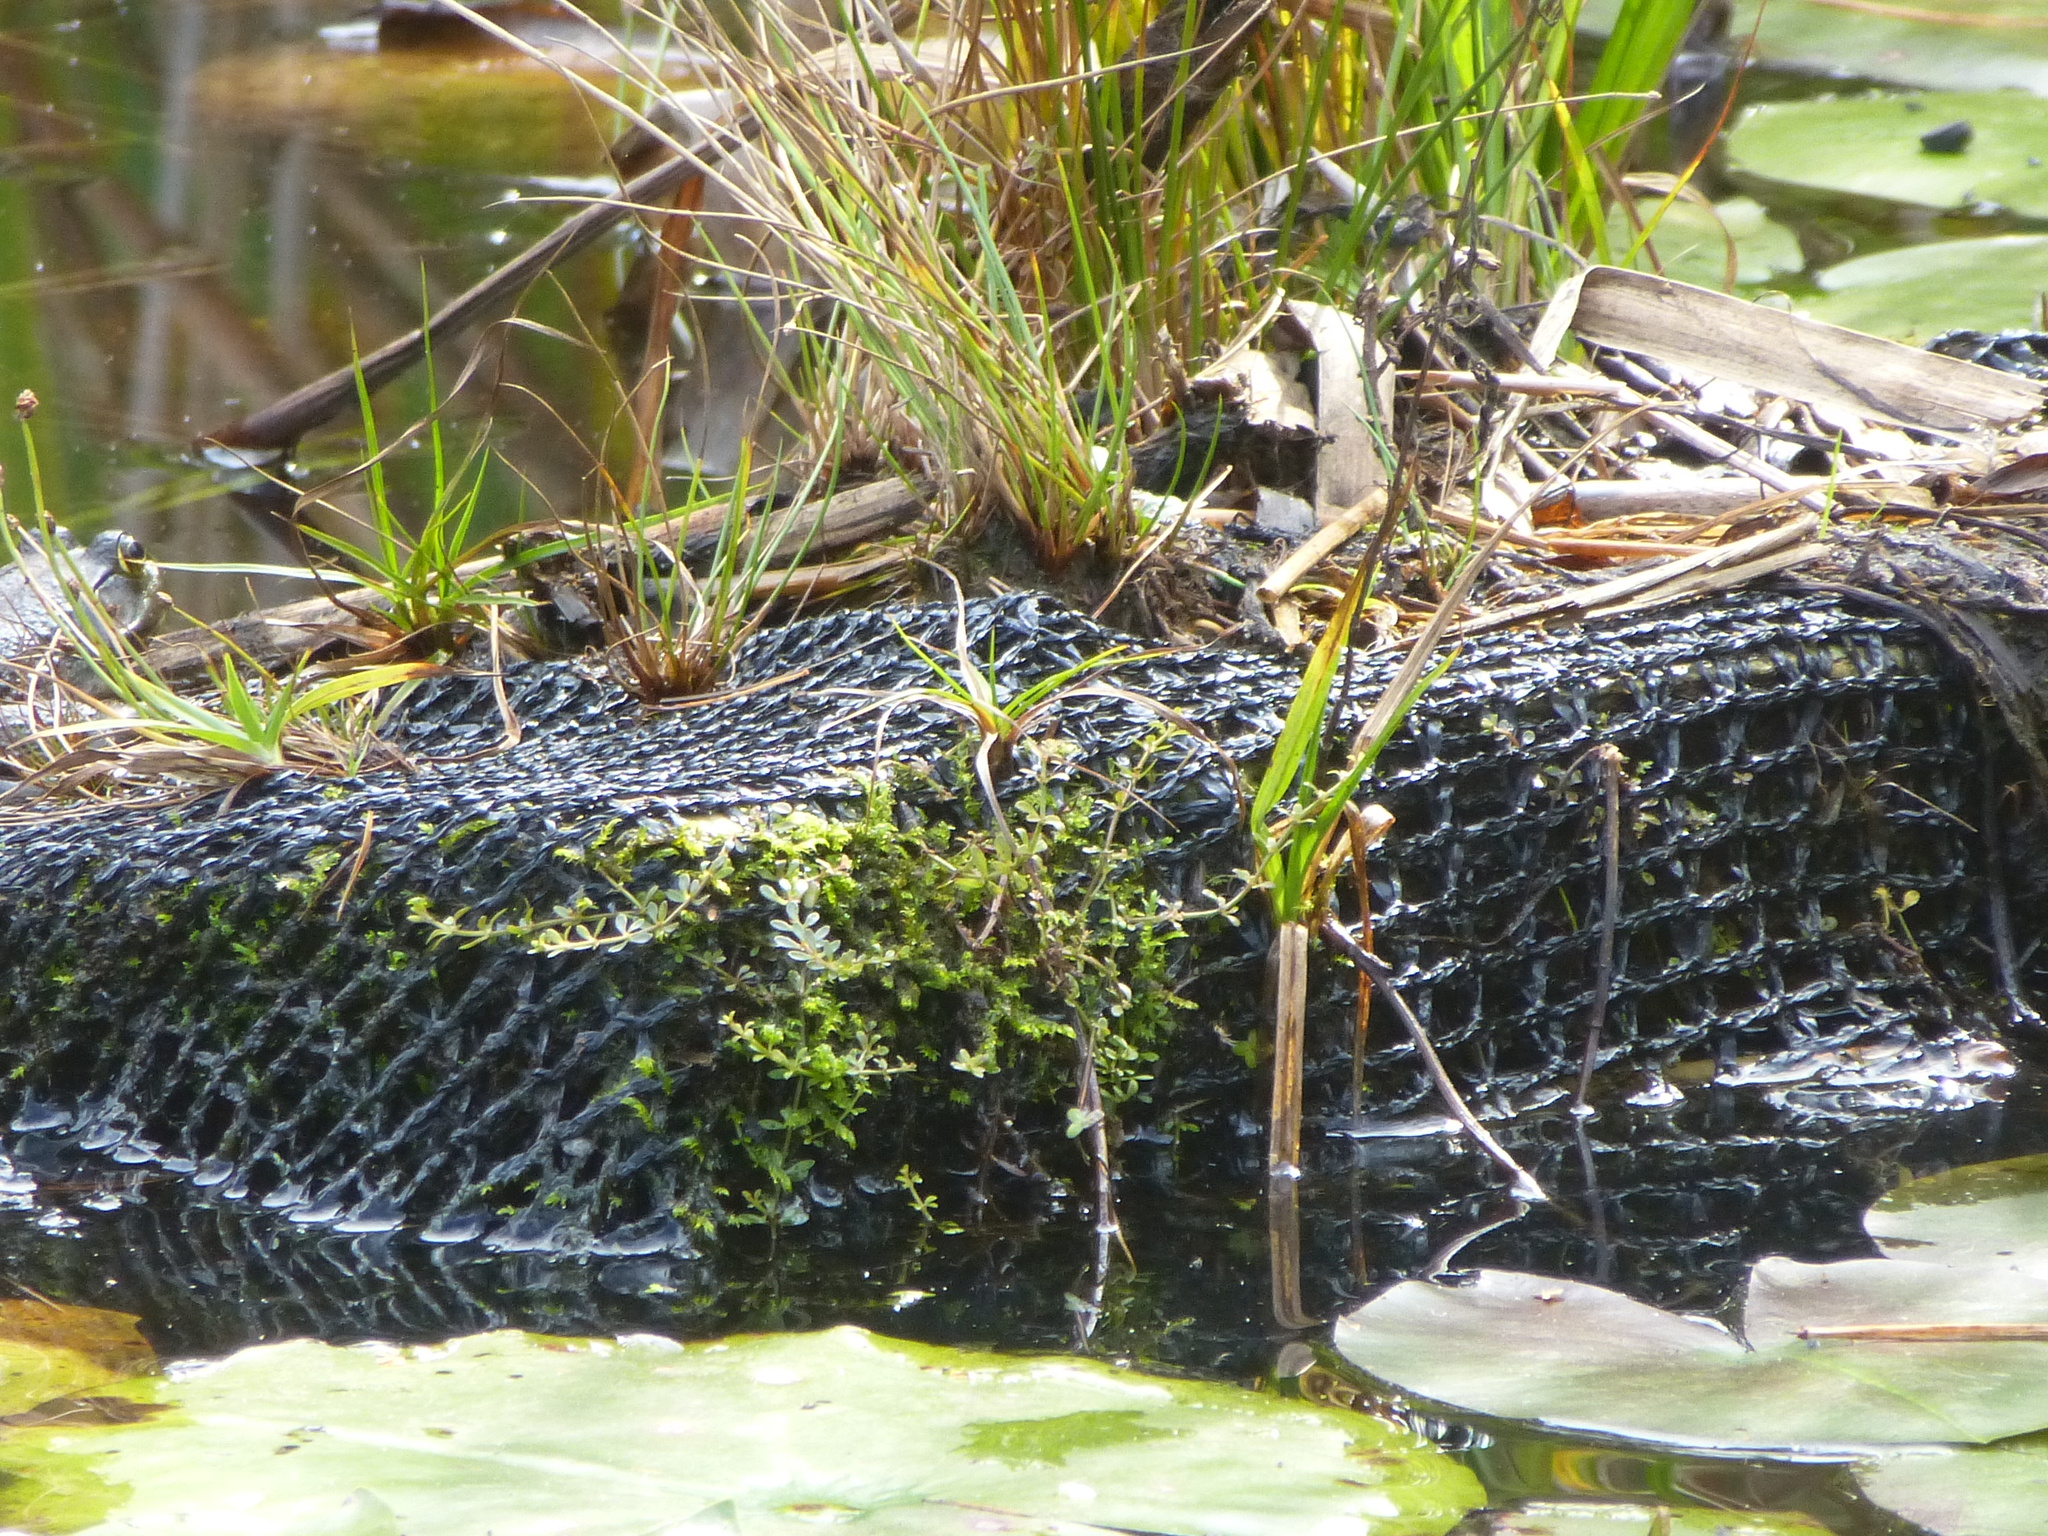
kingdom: Animalia
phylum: Chordata
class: Amphibia
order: Anura
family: Ranidae
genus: Lithobates
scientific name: Lithobates catesbeianus
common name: American bullfrog
